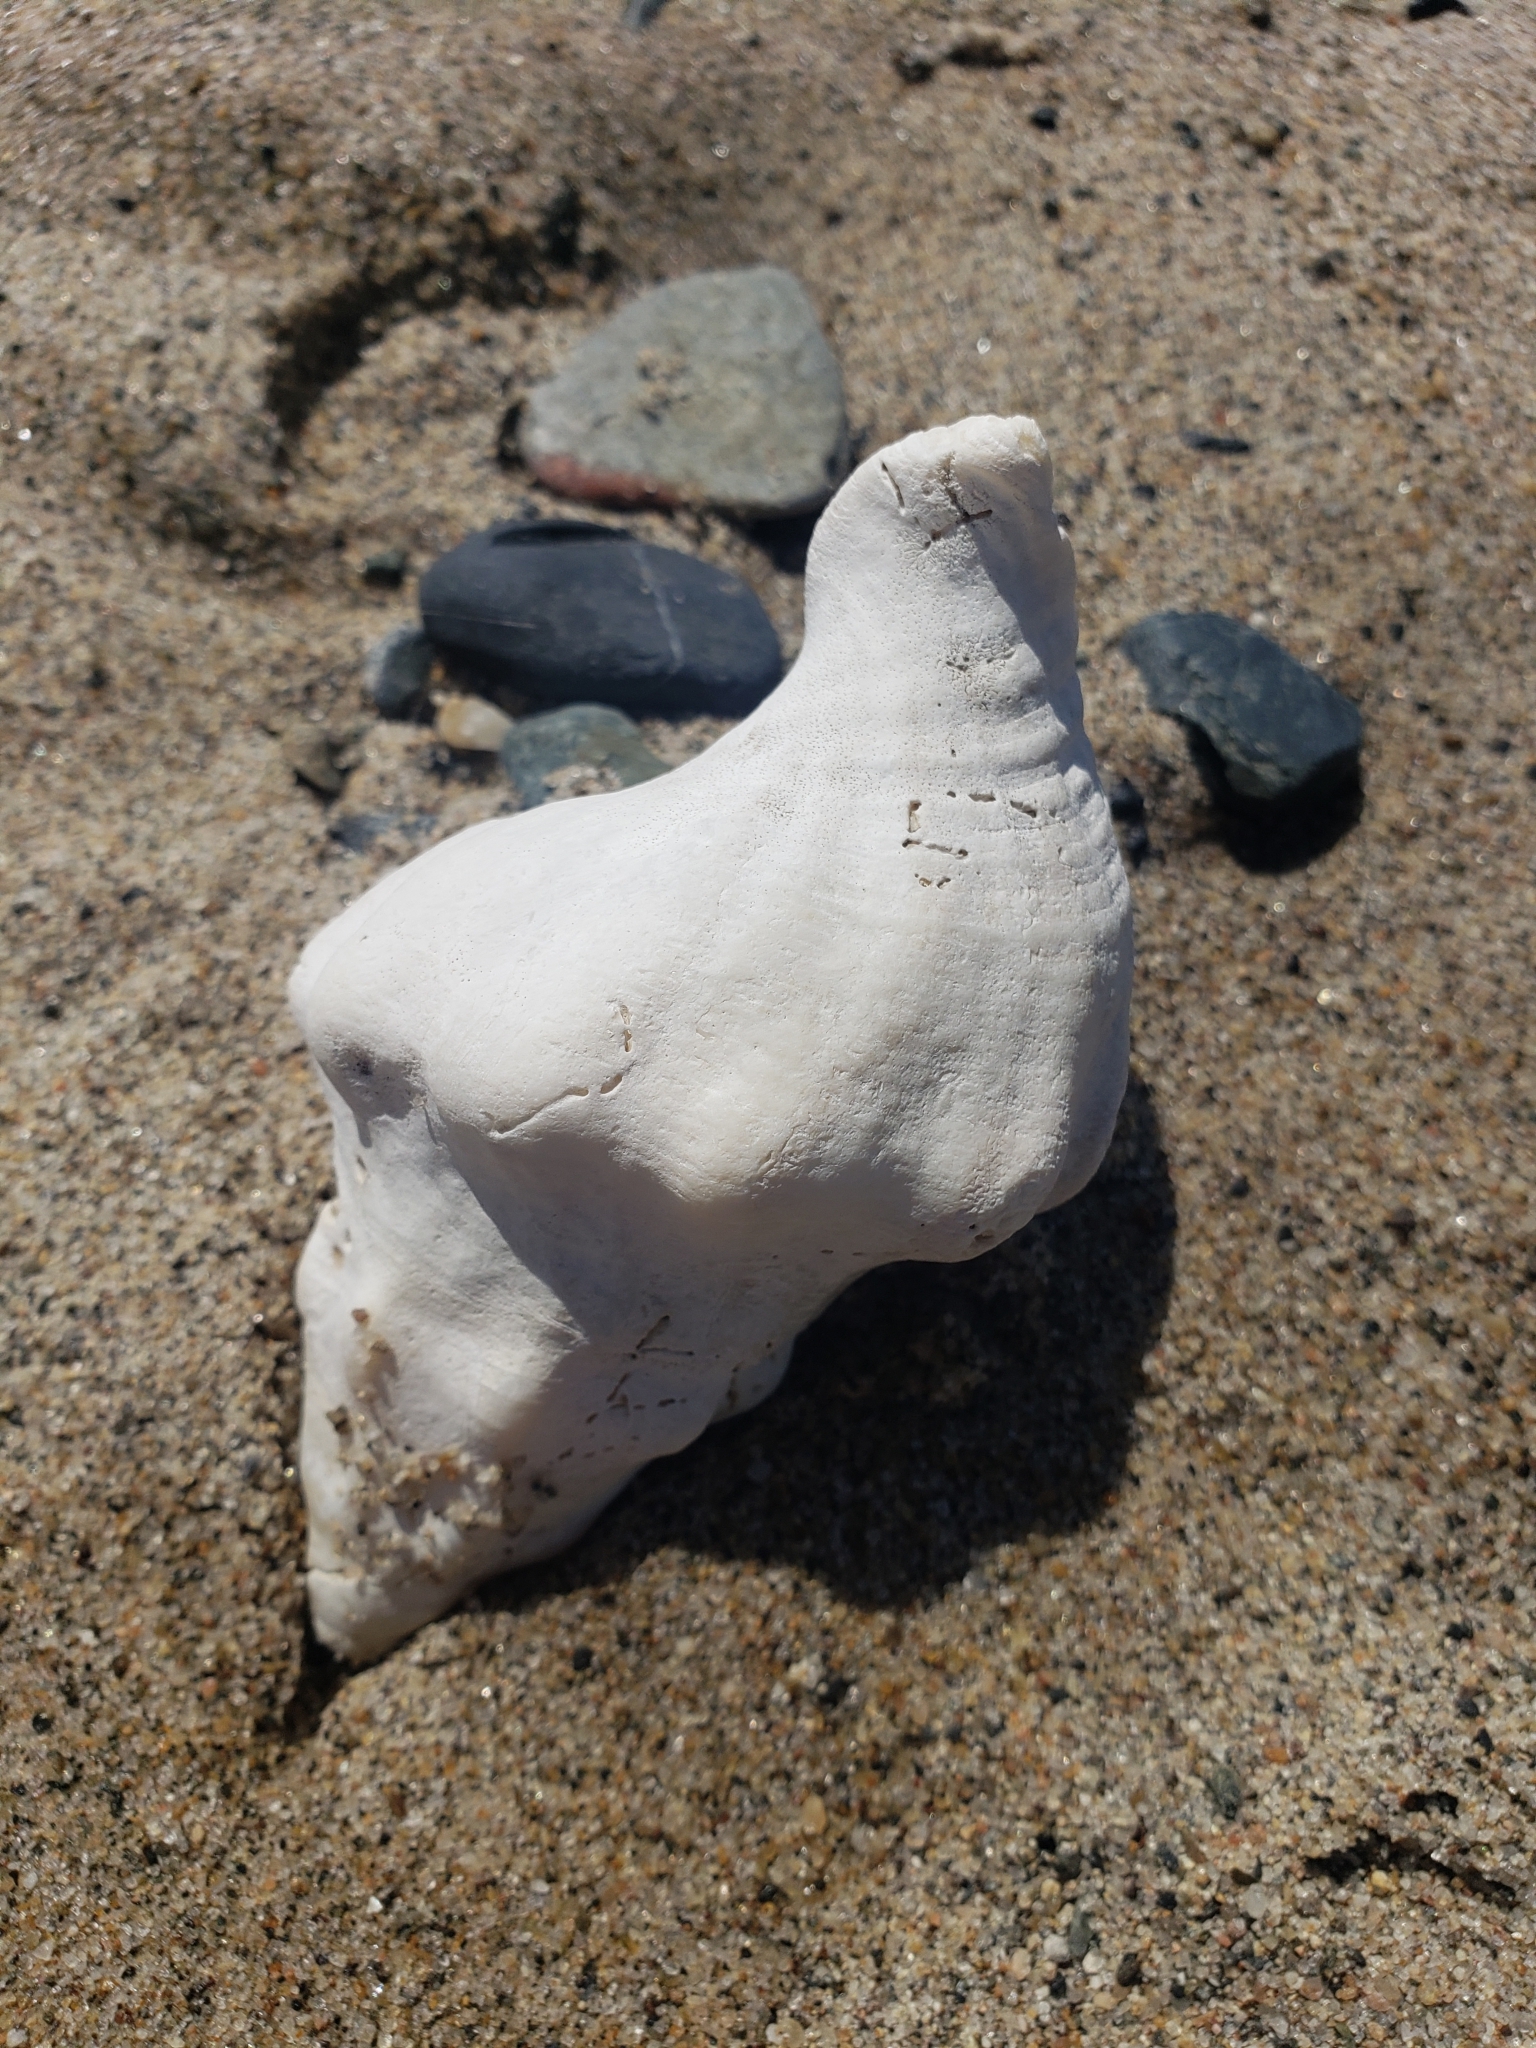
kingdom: Animalia
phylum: Mollusca
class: Gastropoda
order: Neogastropoda
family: Austrosiphonidae
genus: Kelletia
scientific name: Kelletia kelletii
